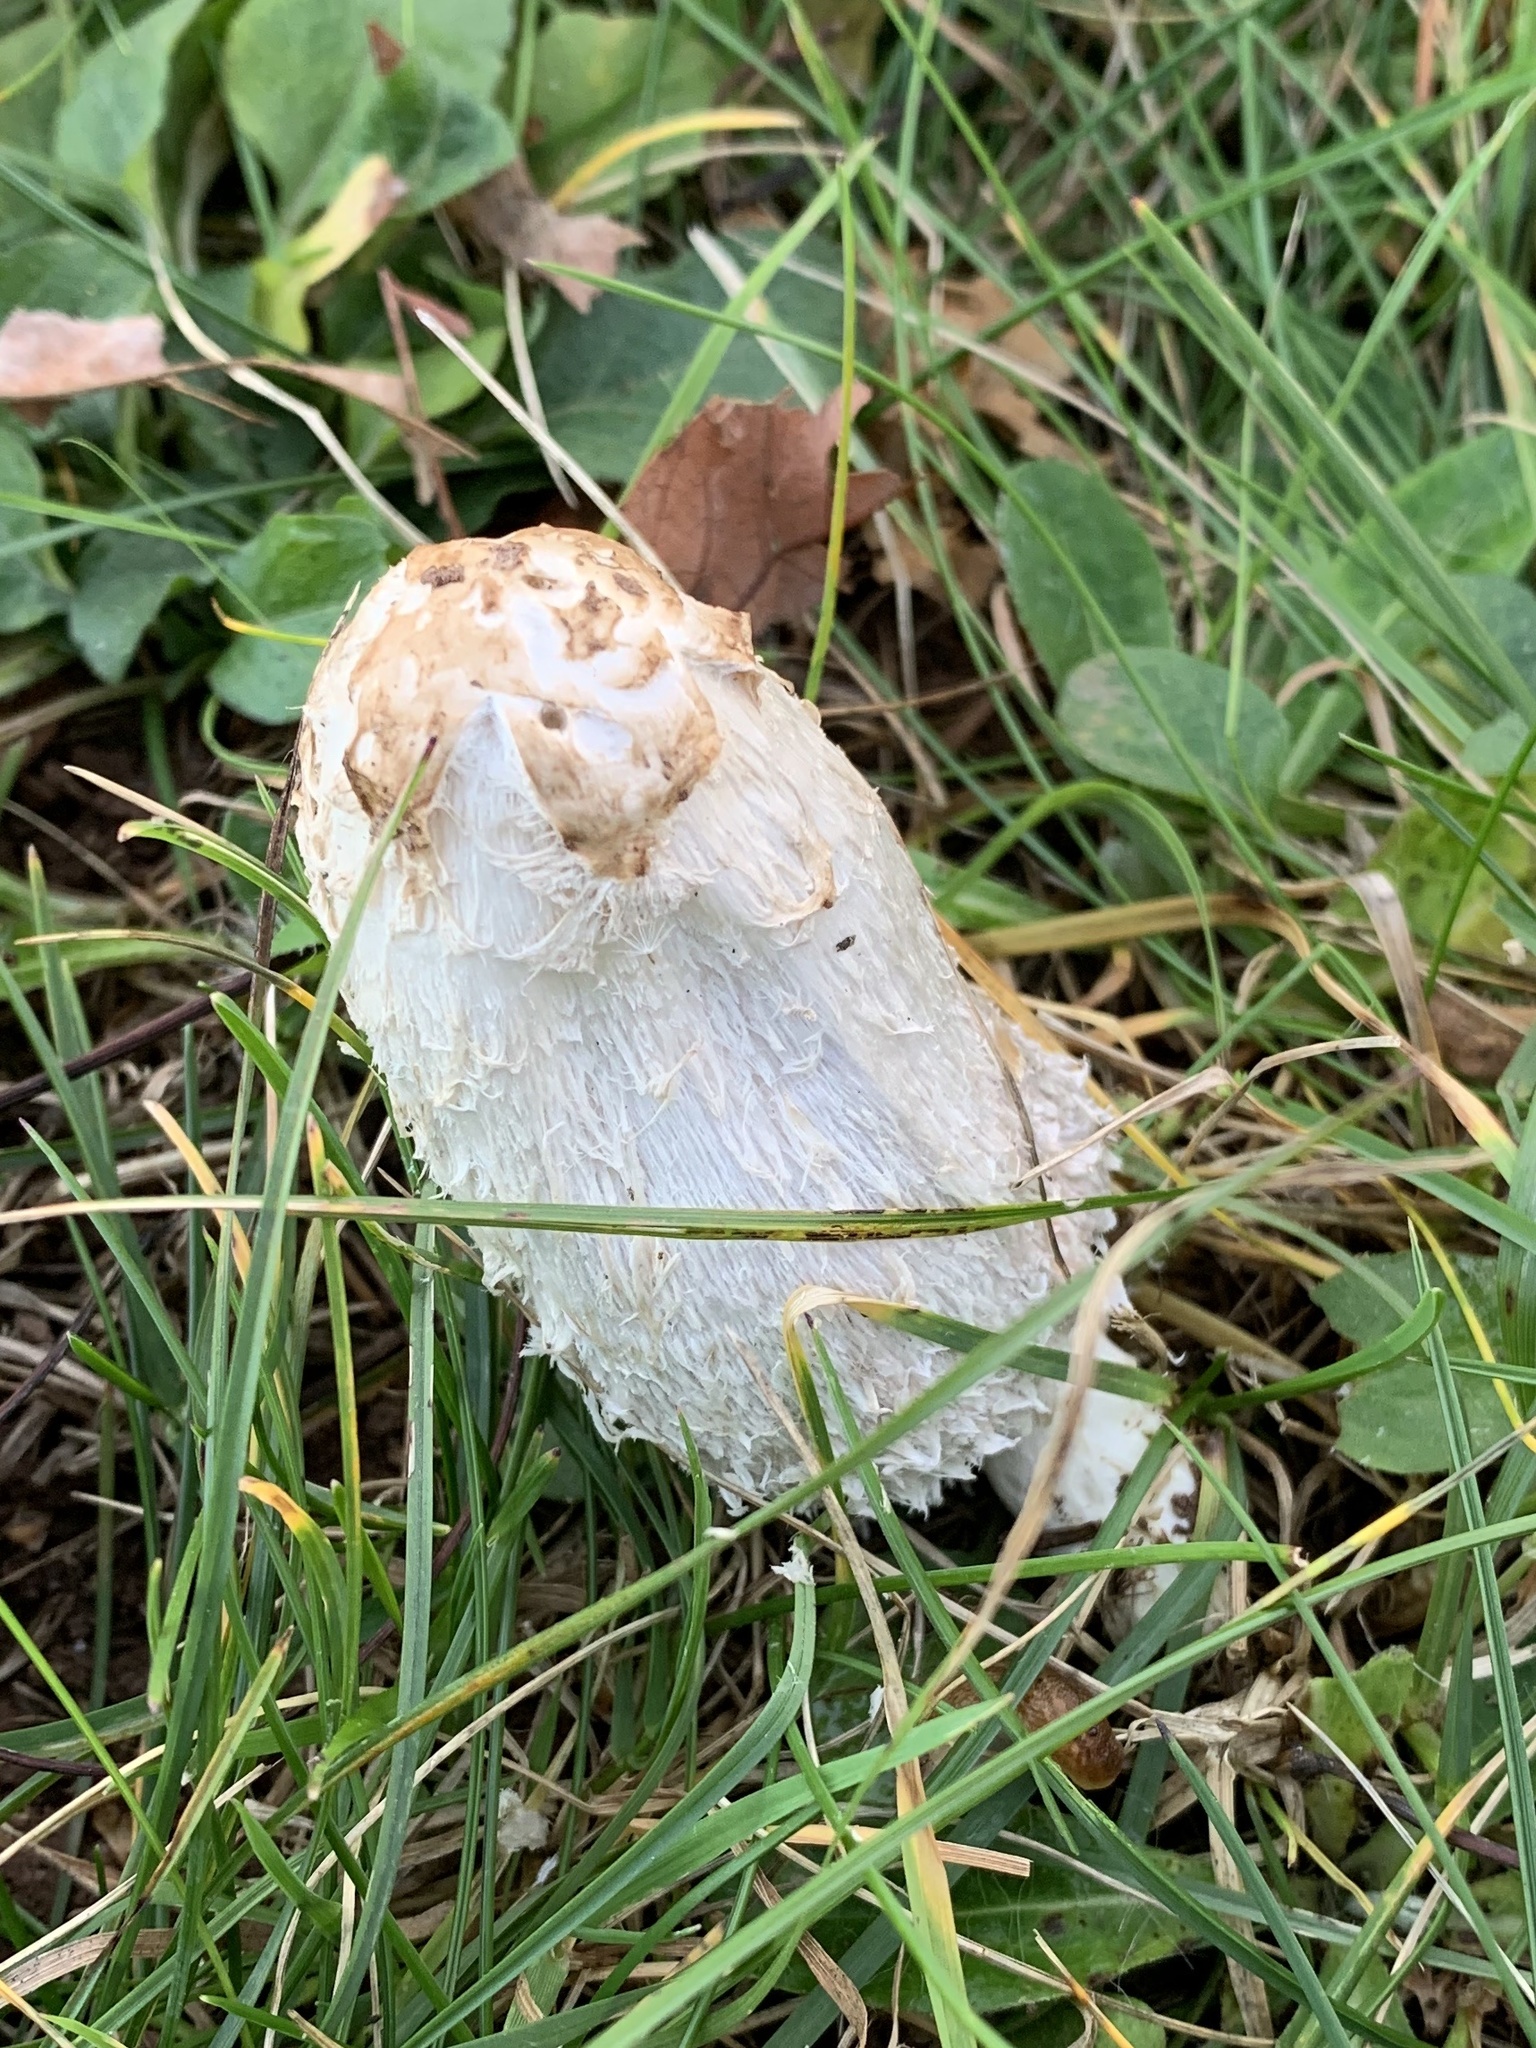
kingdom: Fungi
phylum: Basidiomycota
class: Agaricomycetes
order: Agaricales
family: Agaricaceae
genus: Coprinus
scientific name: Coprinus comatus
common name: Lawyer's wig
